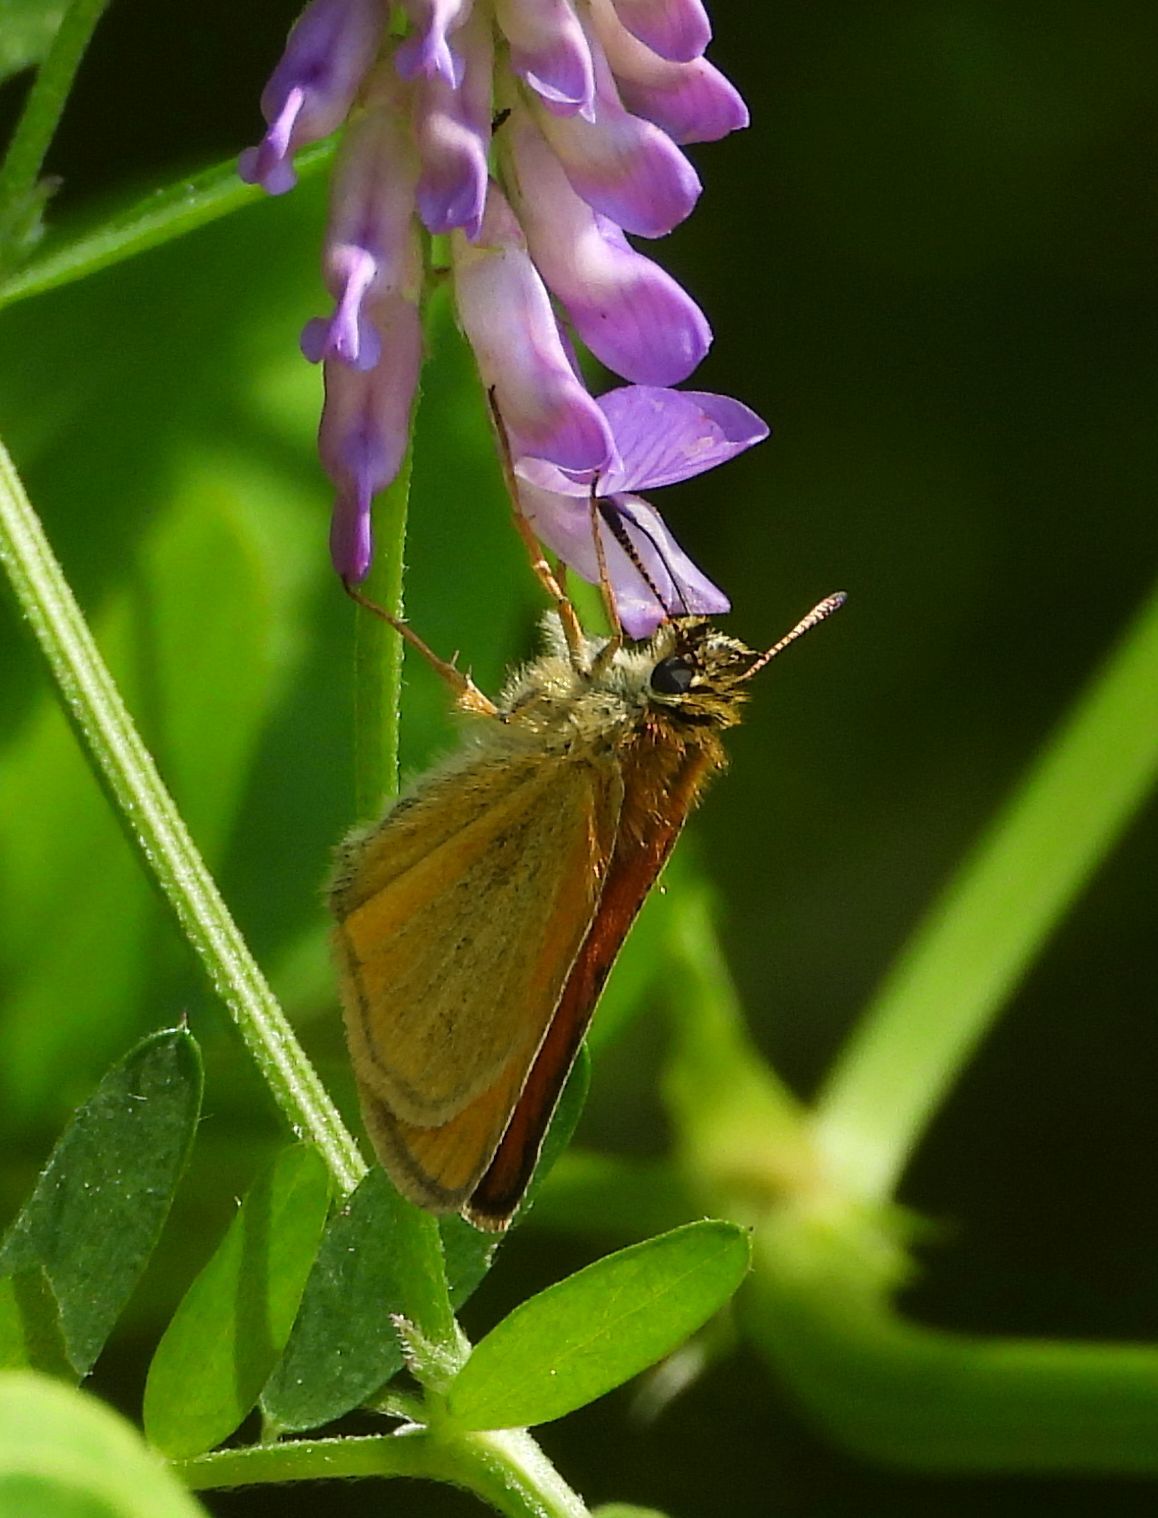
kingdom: Animalia
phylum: Arthropoda
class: Insecta
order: Lepidoptera
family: Hesperiidae
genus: Thymelicus
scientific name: Thymelicus lineola
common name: Essex skipper
